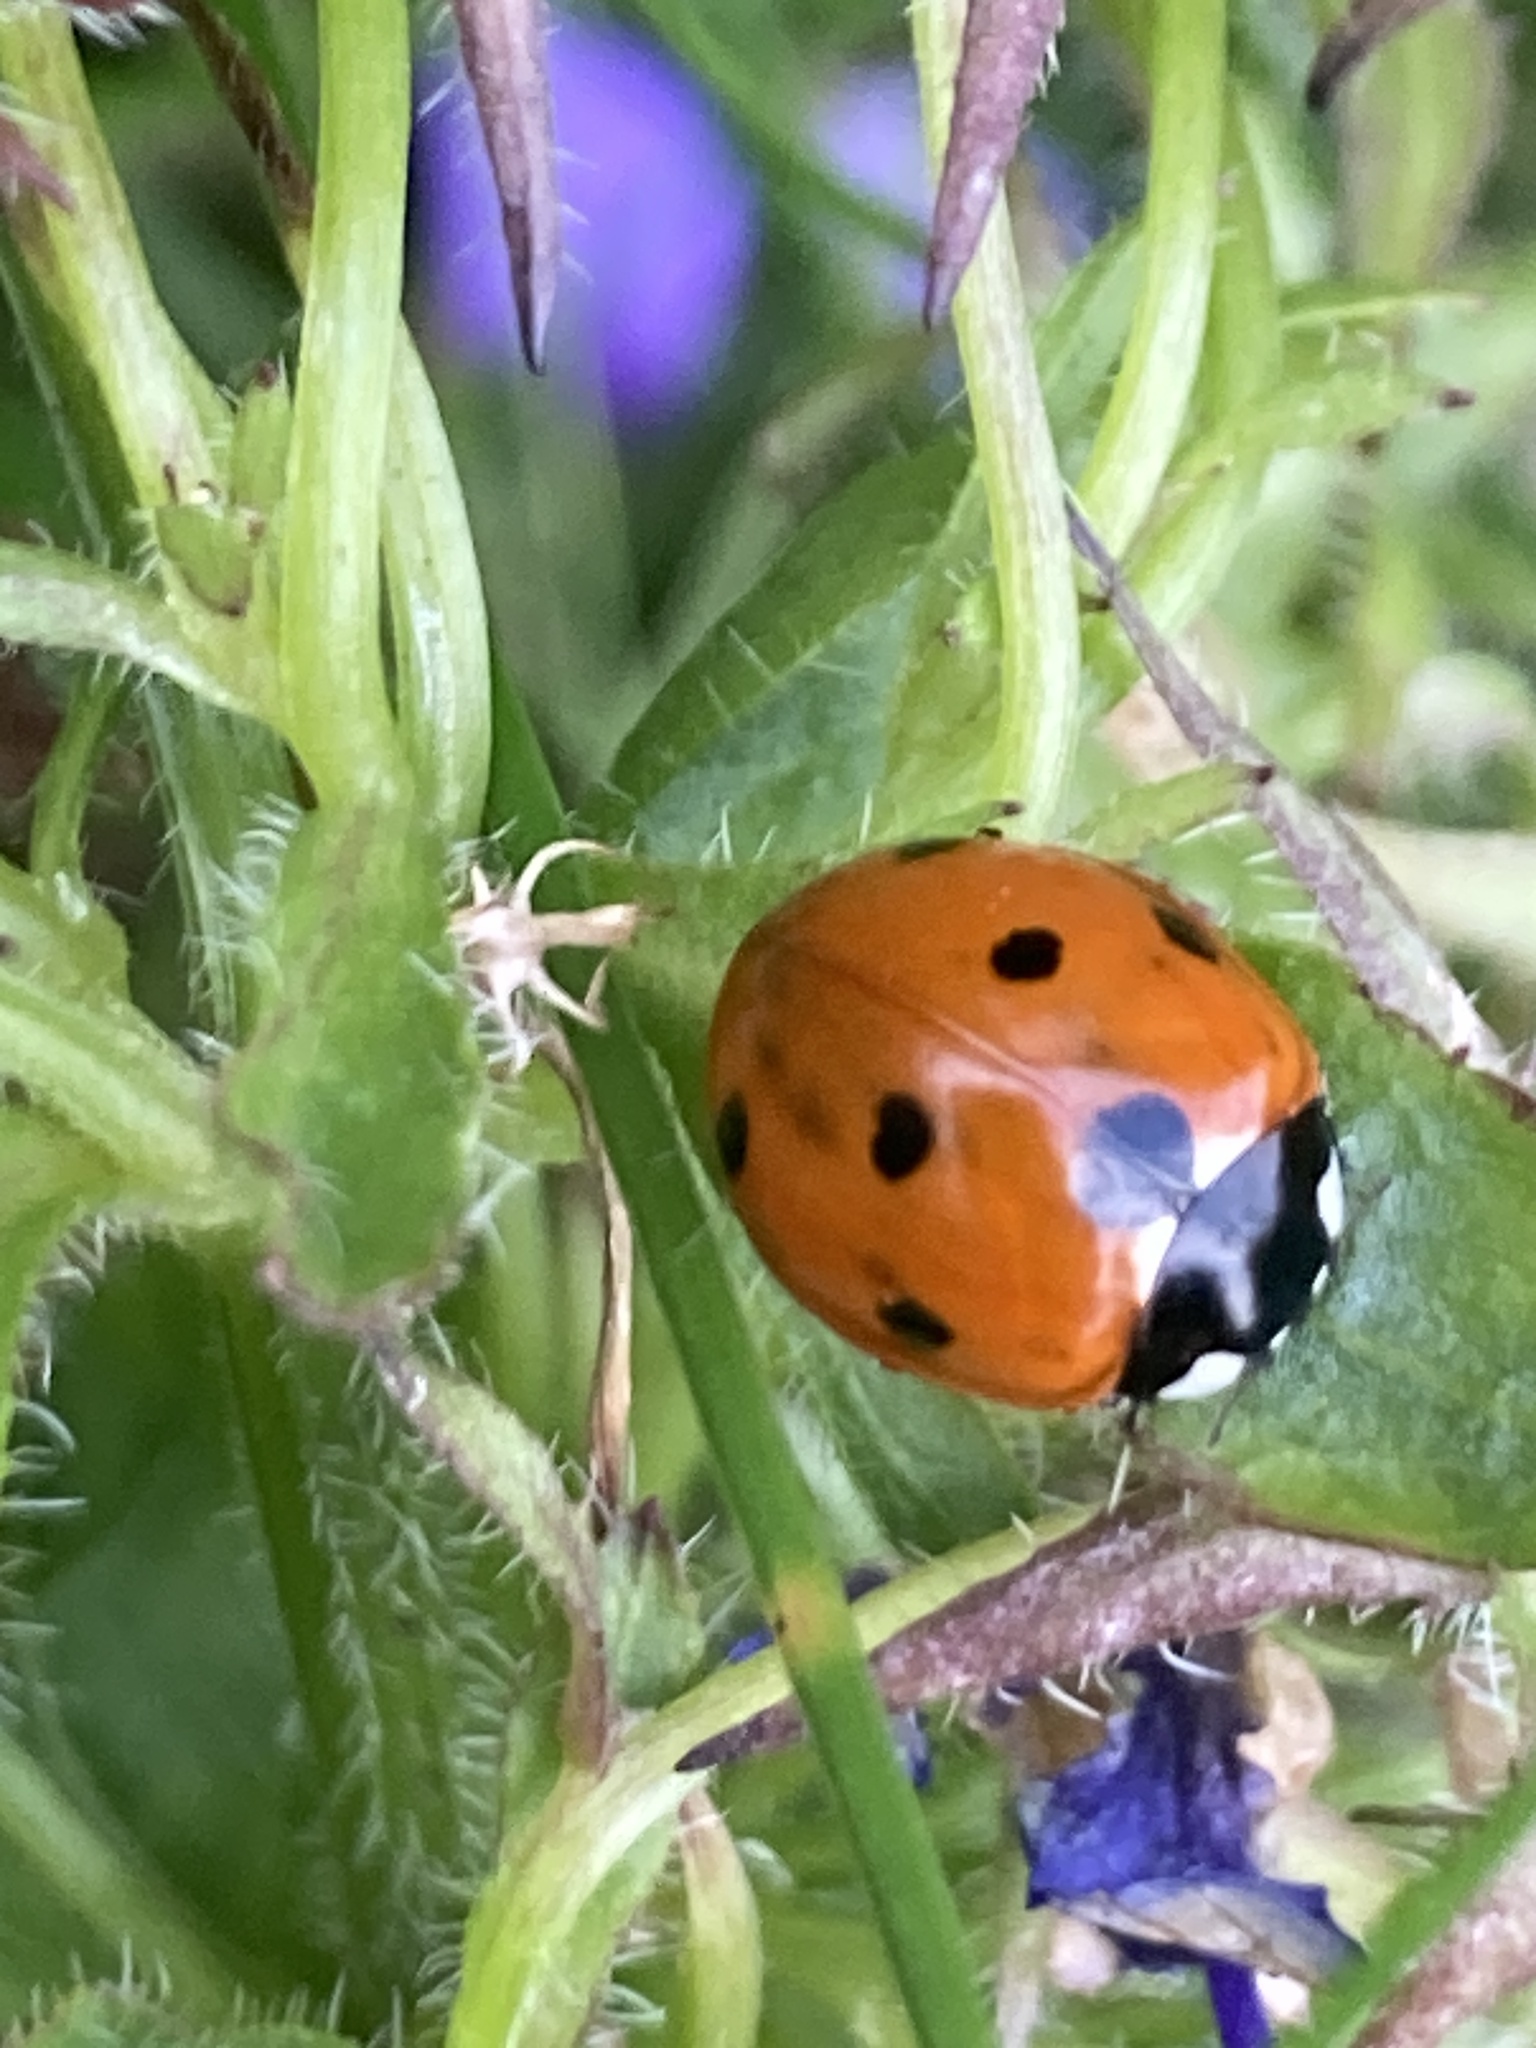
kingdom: Animalia
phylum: Arthropoda
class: Insecta
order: Coleoptera
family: Coccinellidae
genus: Coccinella
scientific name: Coccinella septempunctata
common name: Sevenspotted lady beetle
